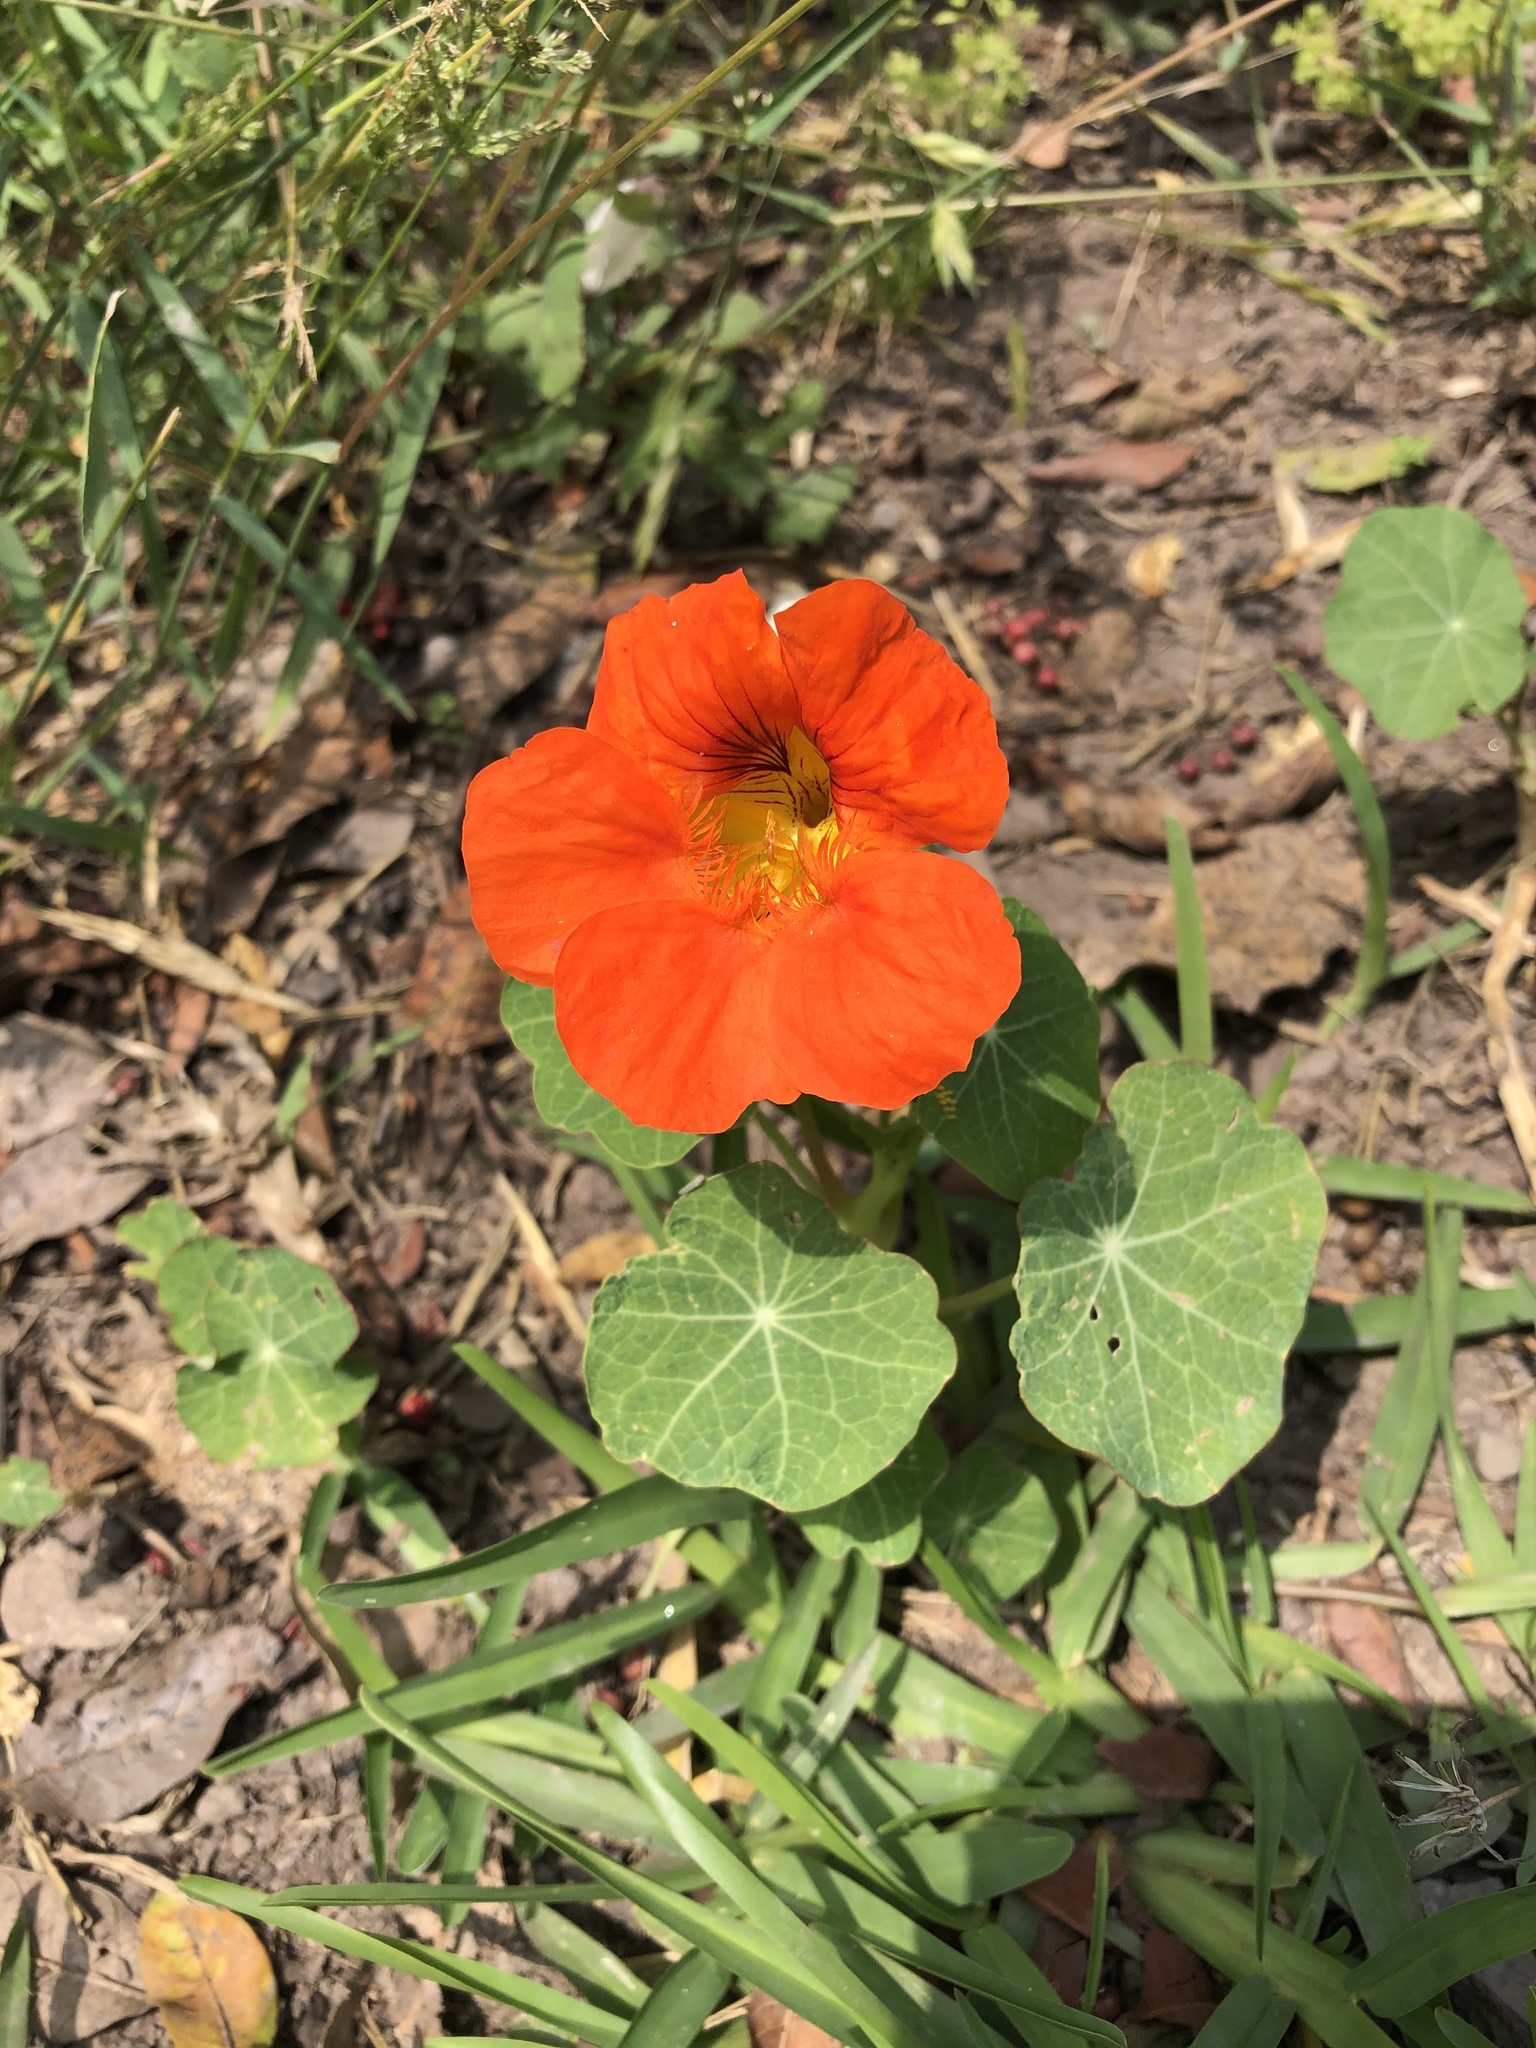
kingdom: Plantae
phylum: Tracheophyta
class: Magnoliopsida
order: Brassicales
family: Tropaeolaceae
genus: Tropaeolum
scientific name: Tropaeolum majus
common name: Nasturtium
